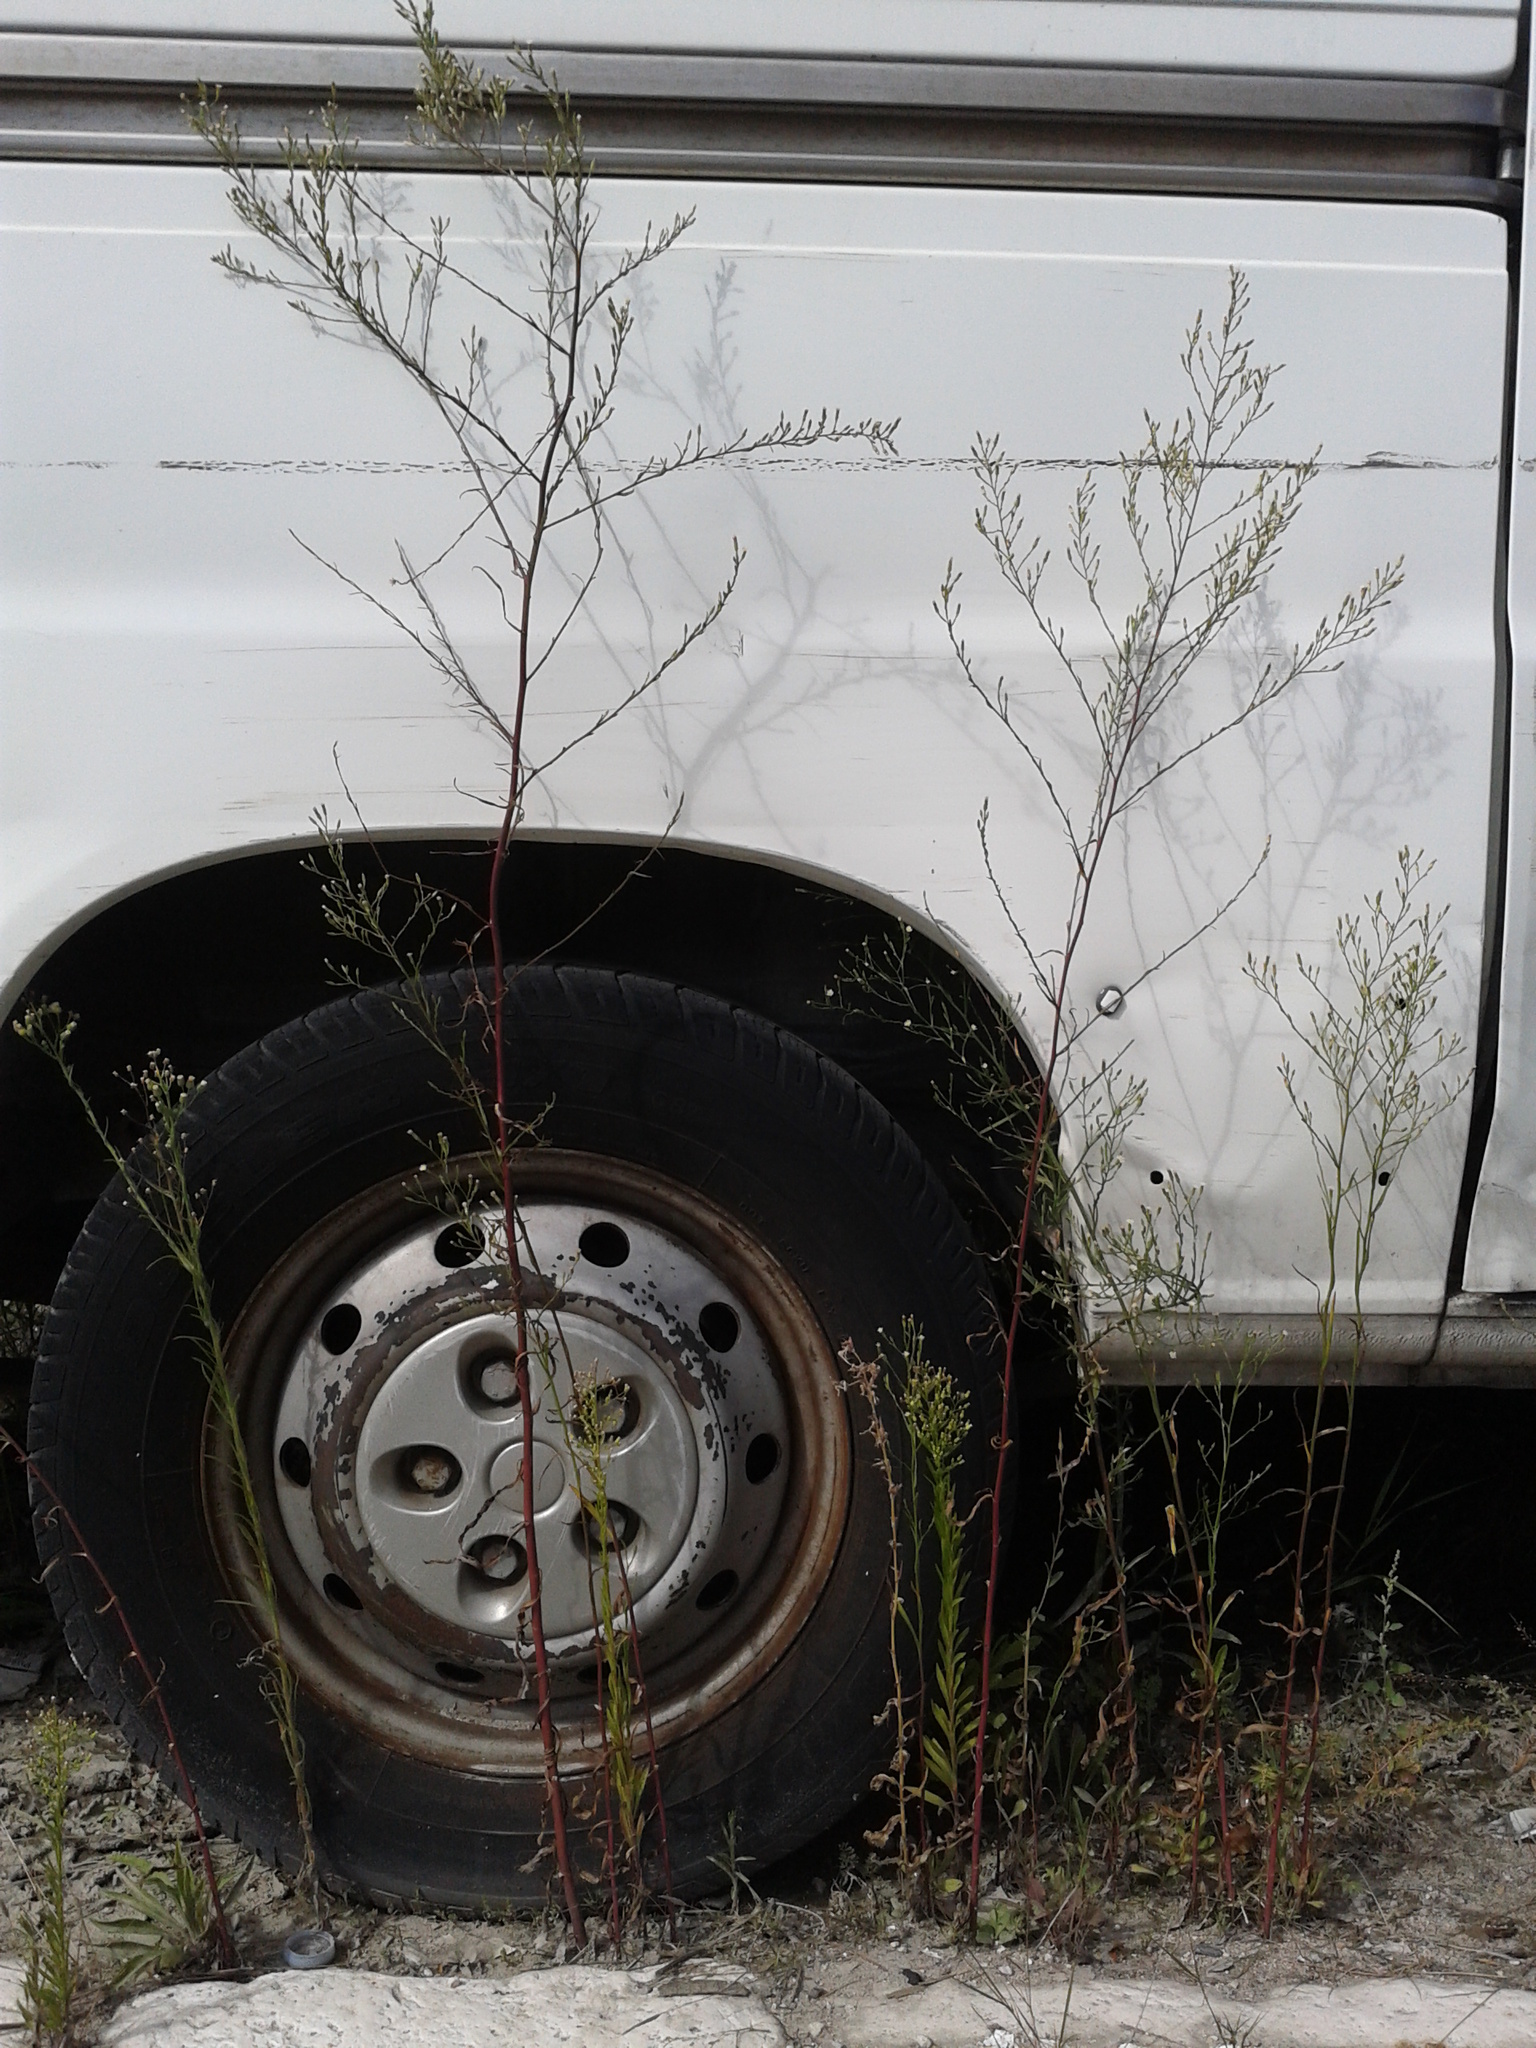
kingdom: Plantae
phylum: Tracheophyta
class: Magnoliopsida
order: Asterales
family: Asteraceae
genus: Symphyotrichum
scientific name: Symphyotrichum squamatum
